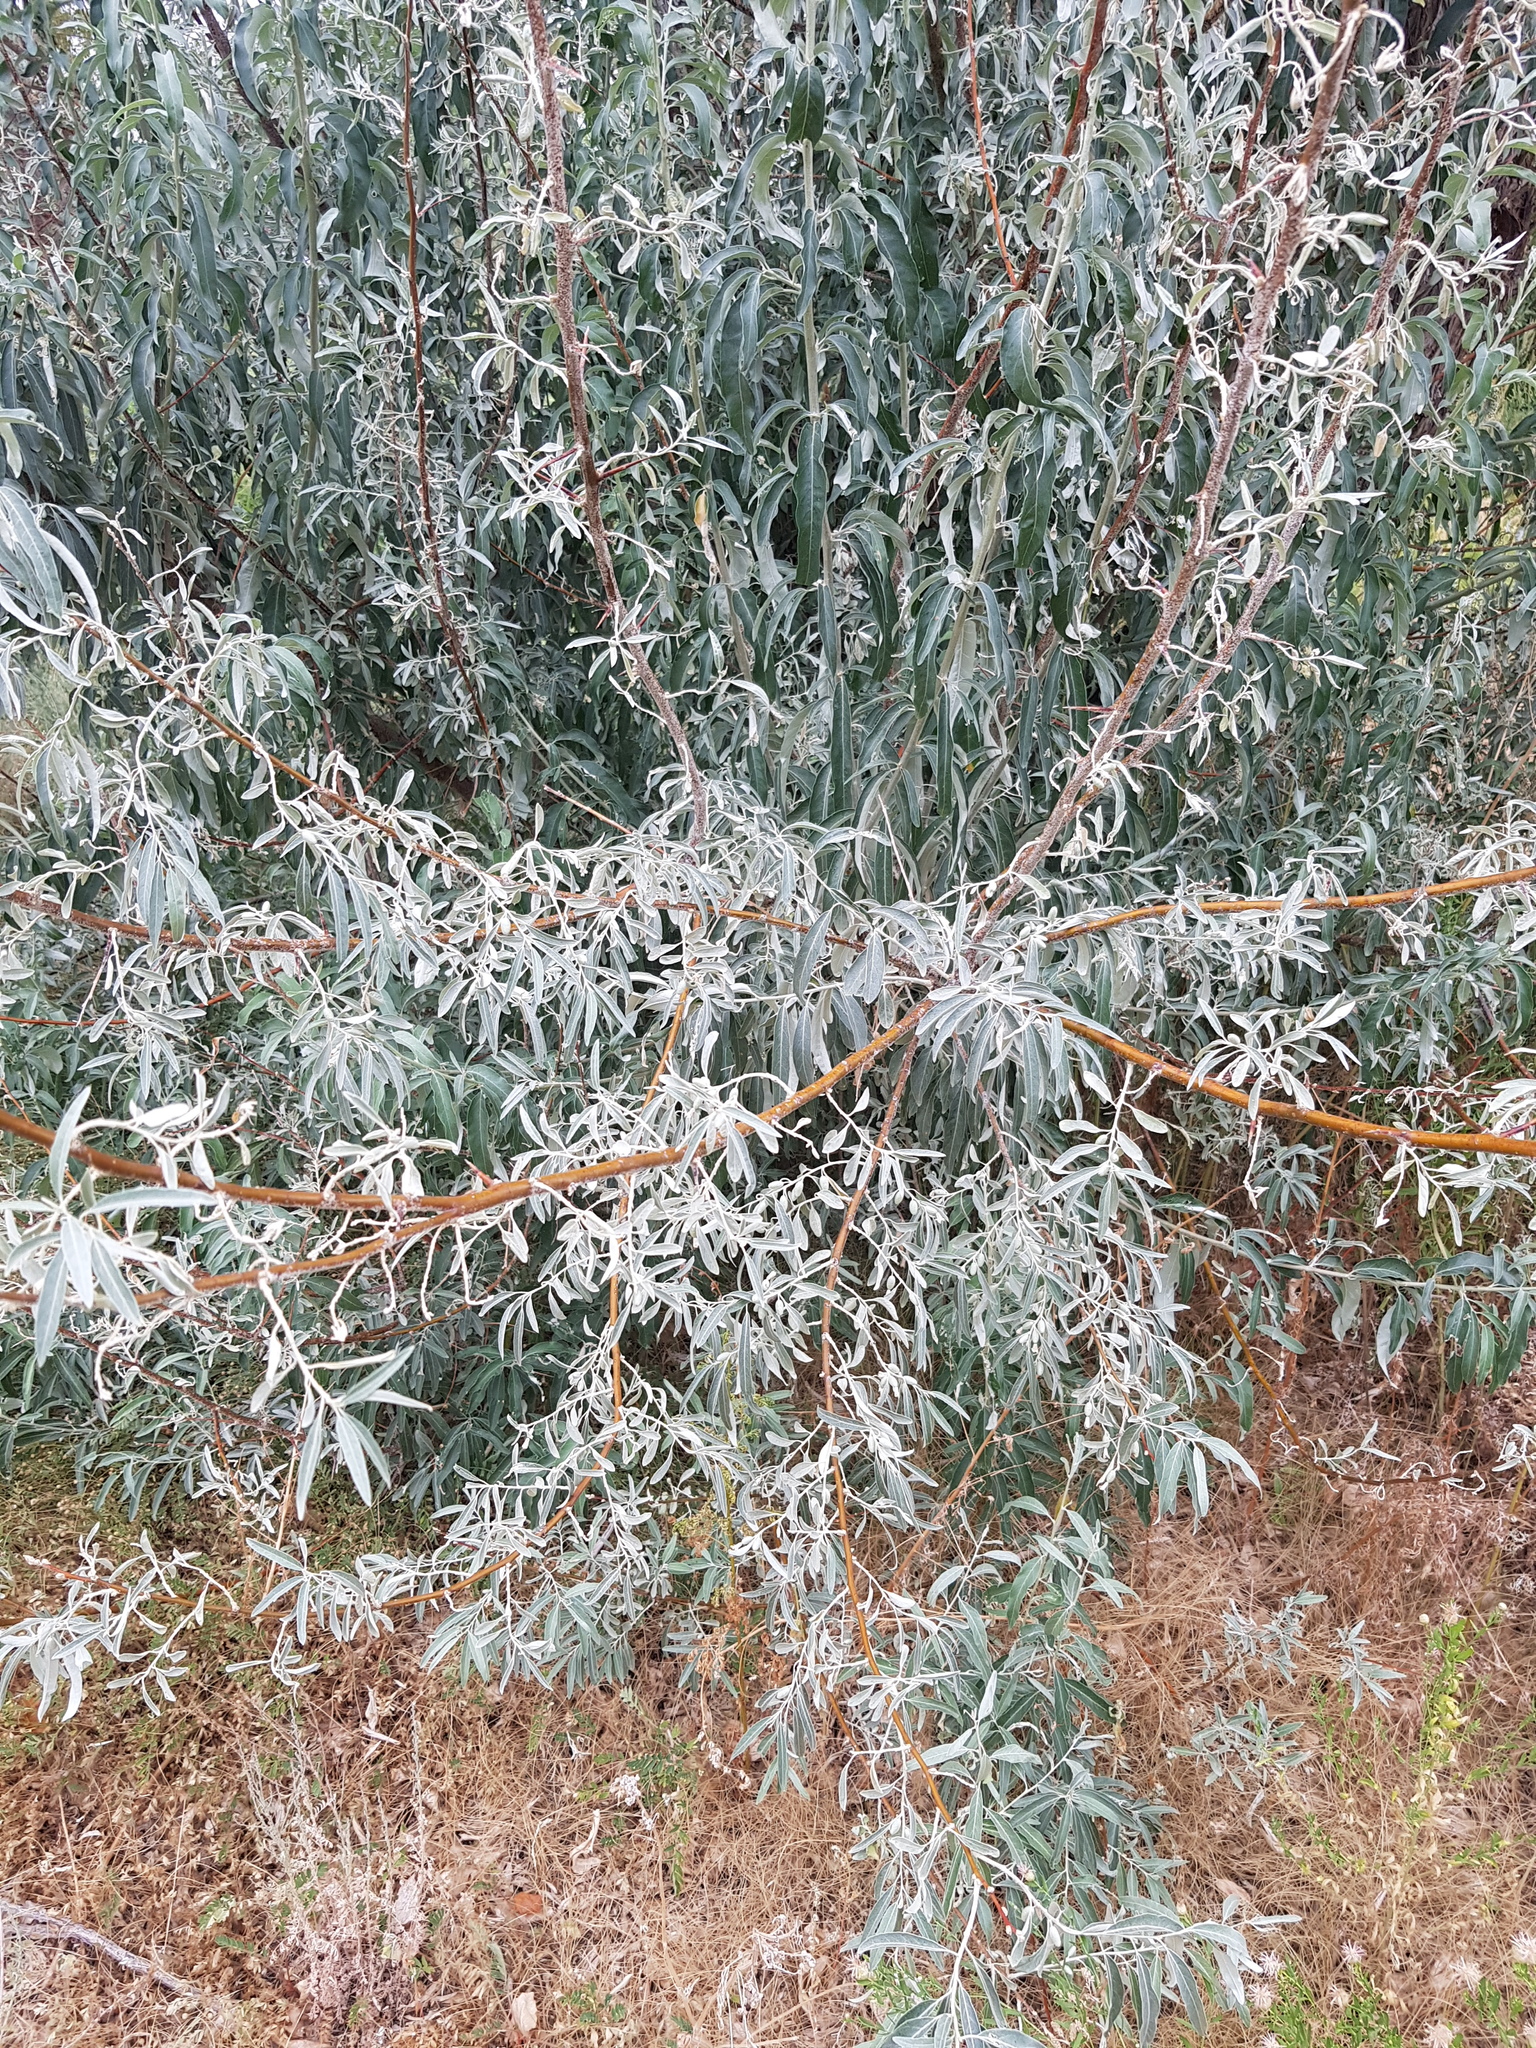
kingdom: Plantae
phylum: Tracheophyta
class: Magnoliopsida
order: Rosales
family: Elaeagnaceae
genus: Elaeagnus
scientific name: Elaeagnus angustifolia
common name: Russian olive
